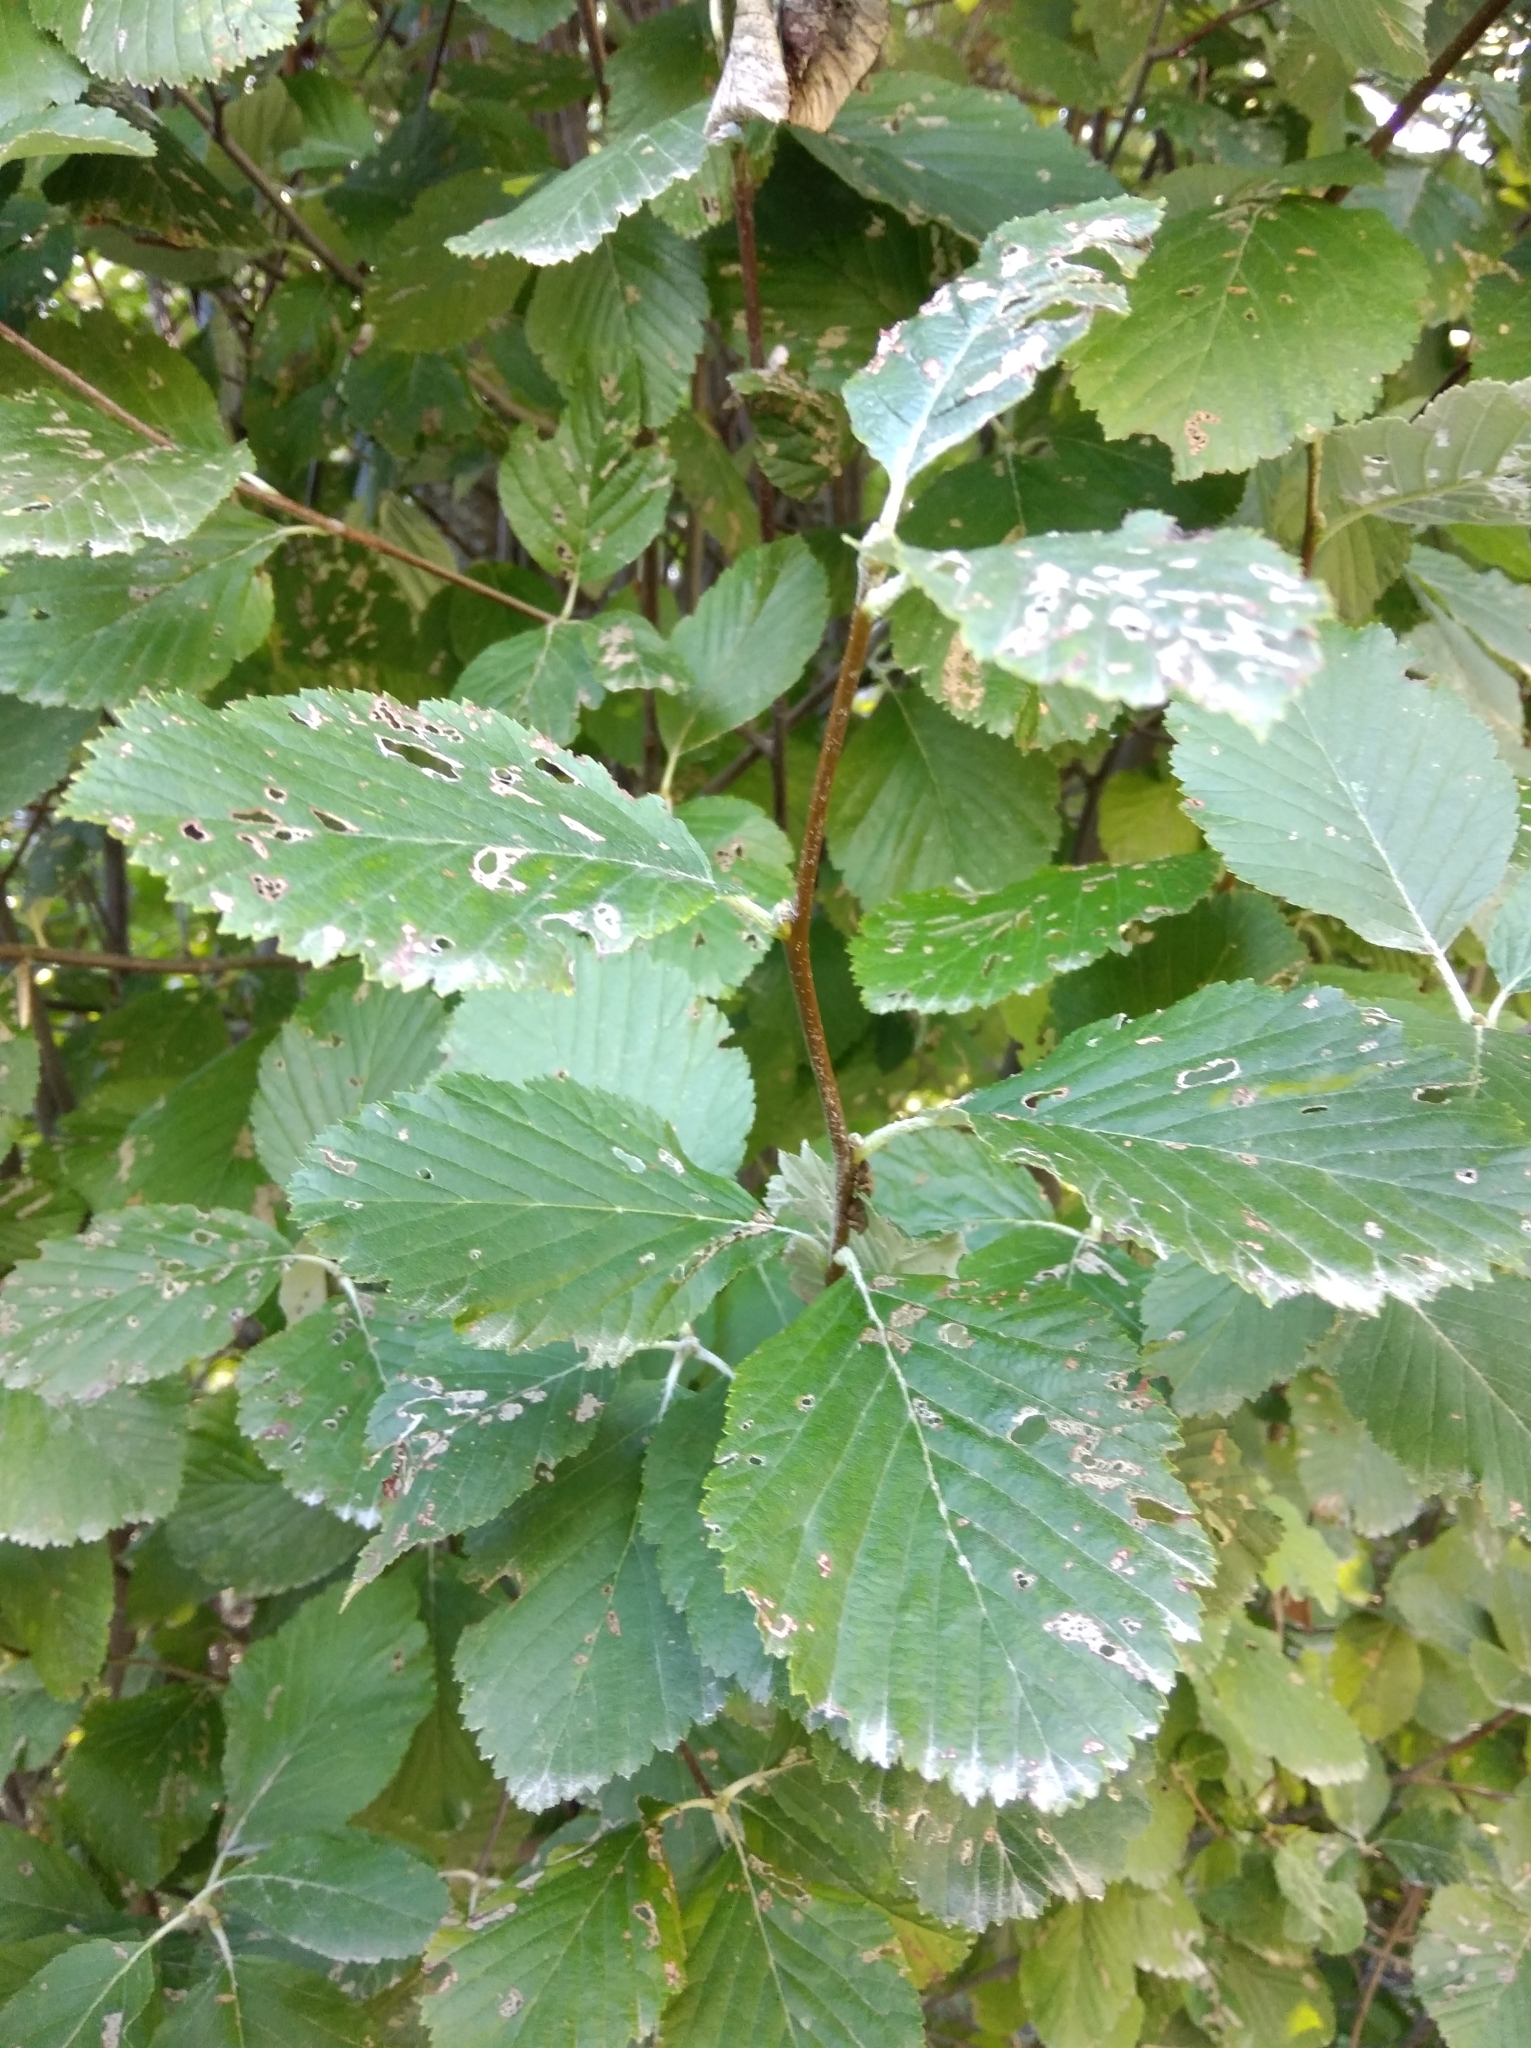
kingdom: Plantae
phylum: Tracheophyta
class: Magnoliopsida
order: Rosales
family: Rosaceae
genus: Aria
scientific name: Aria edulis
